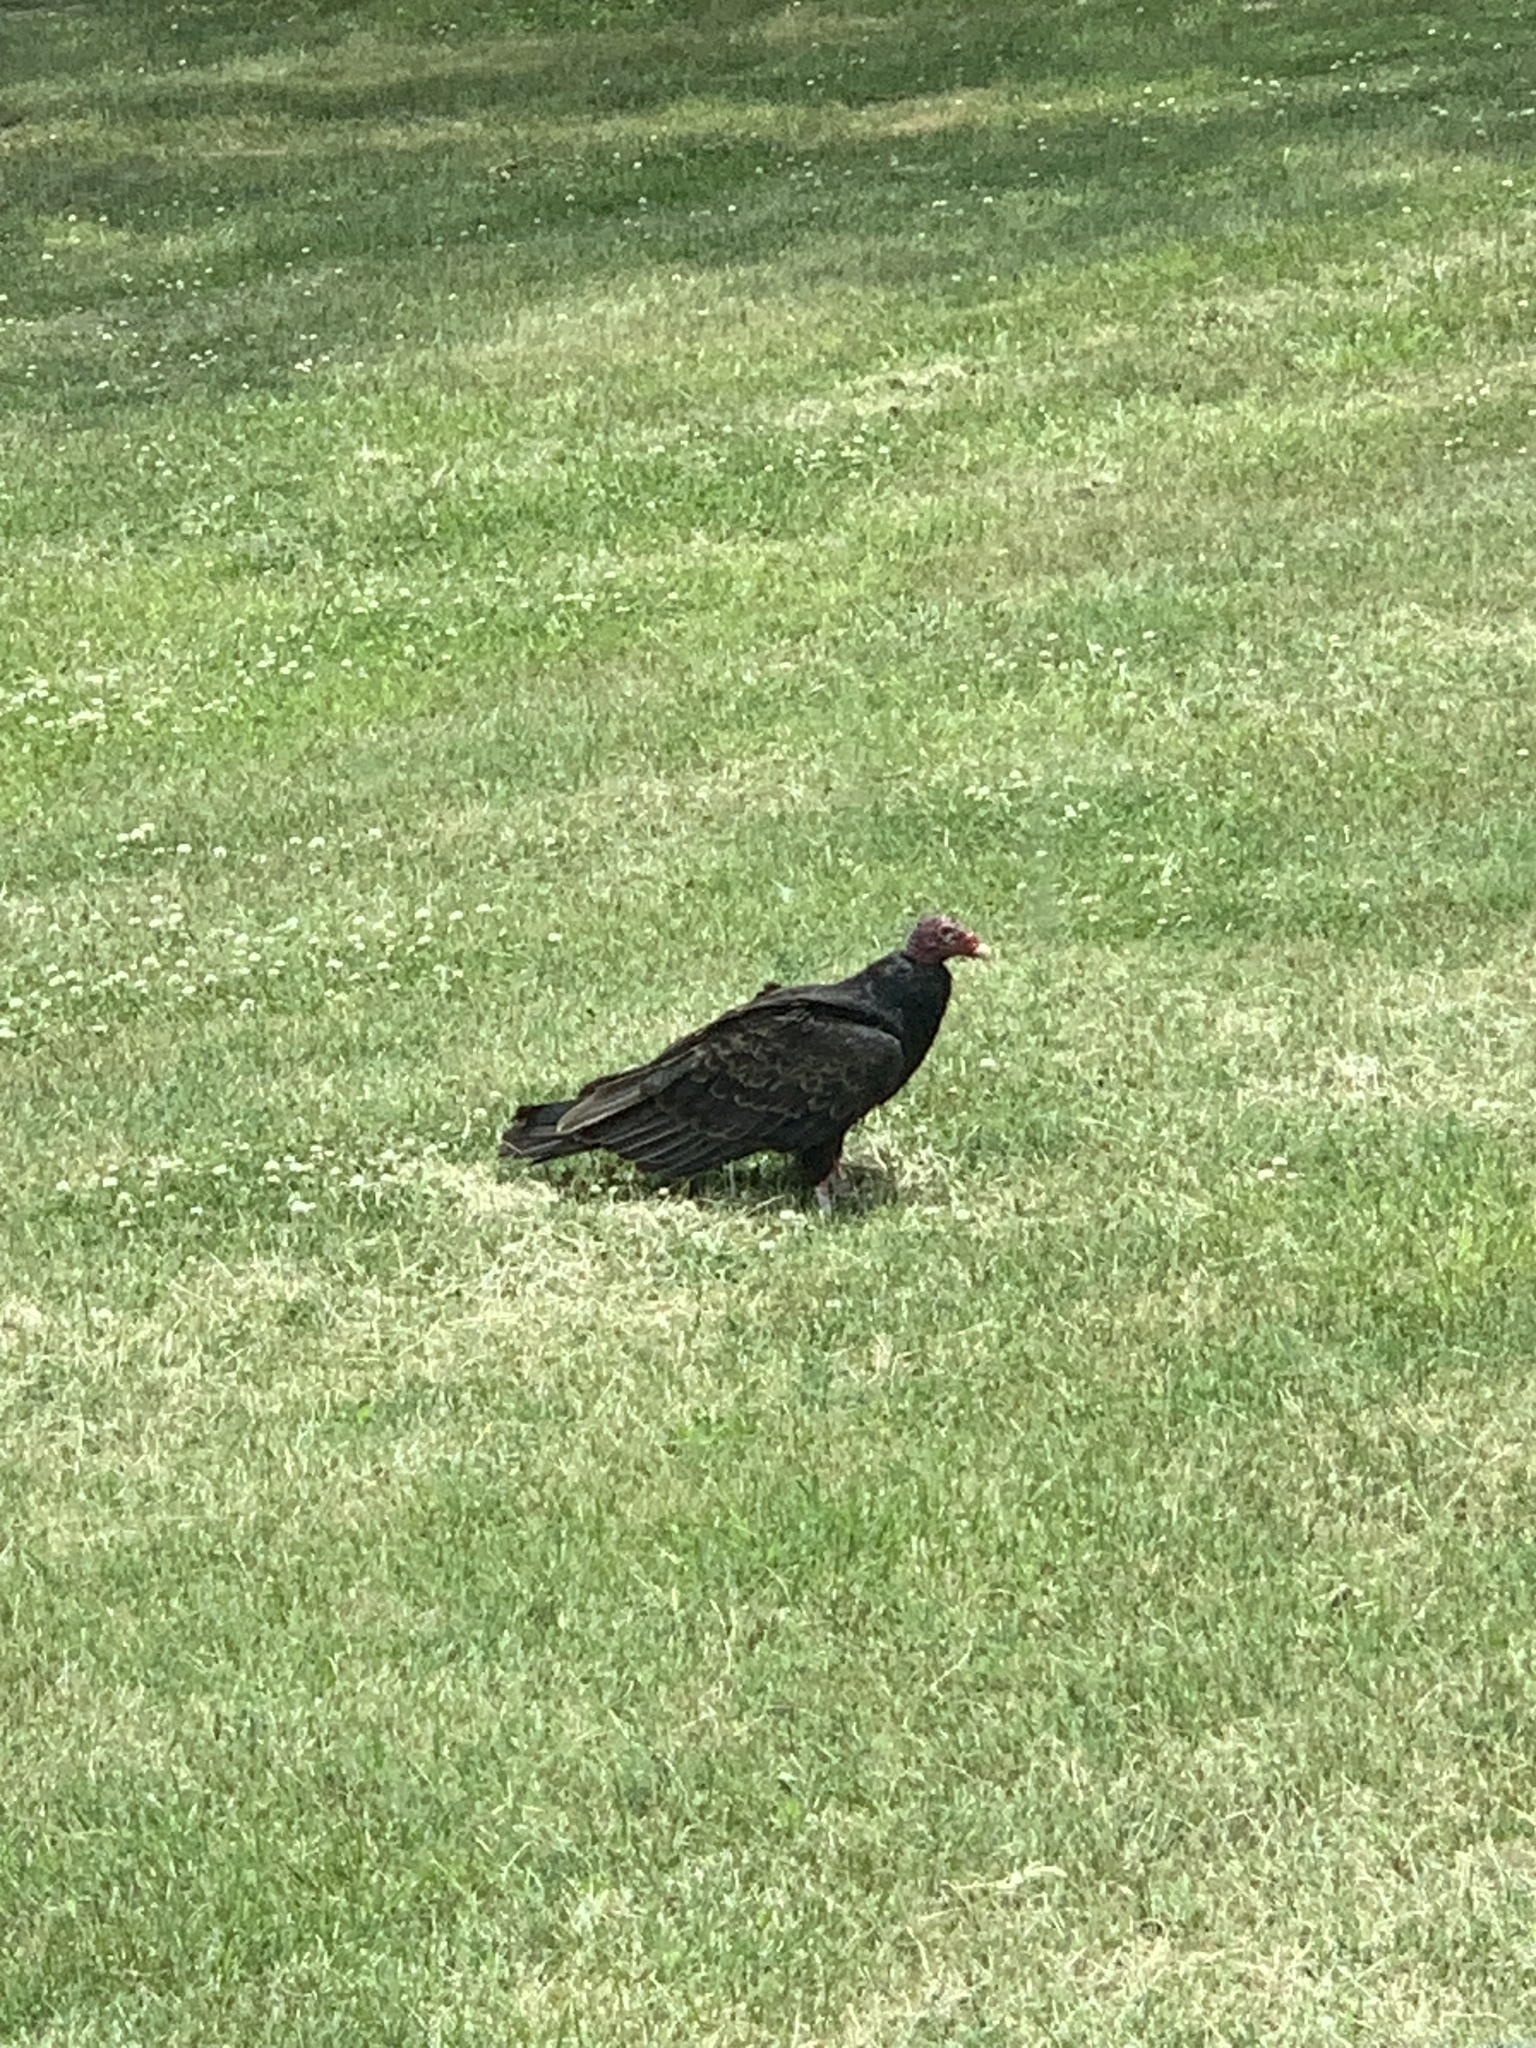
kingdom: Animalia
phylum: Chordata
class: Aves
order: Accipitriformes
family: Cathartidae
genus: Cathartes
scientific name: Cathartes aura
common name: Turkey vulture
